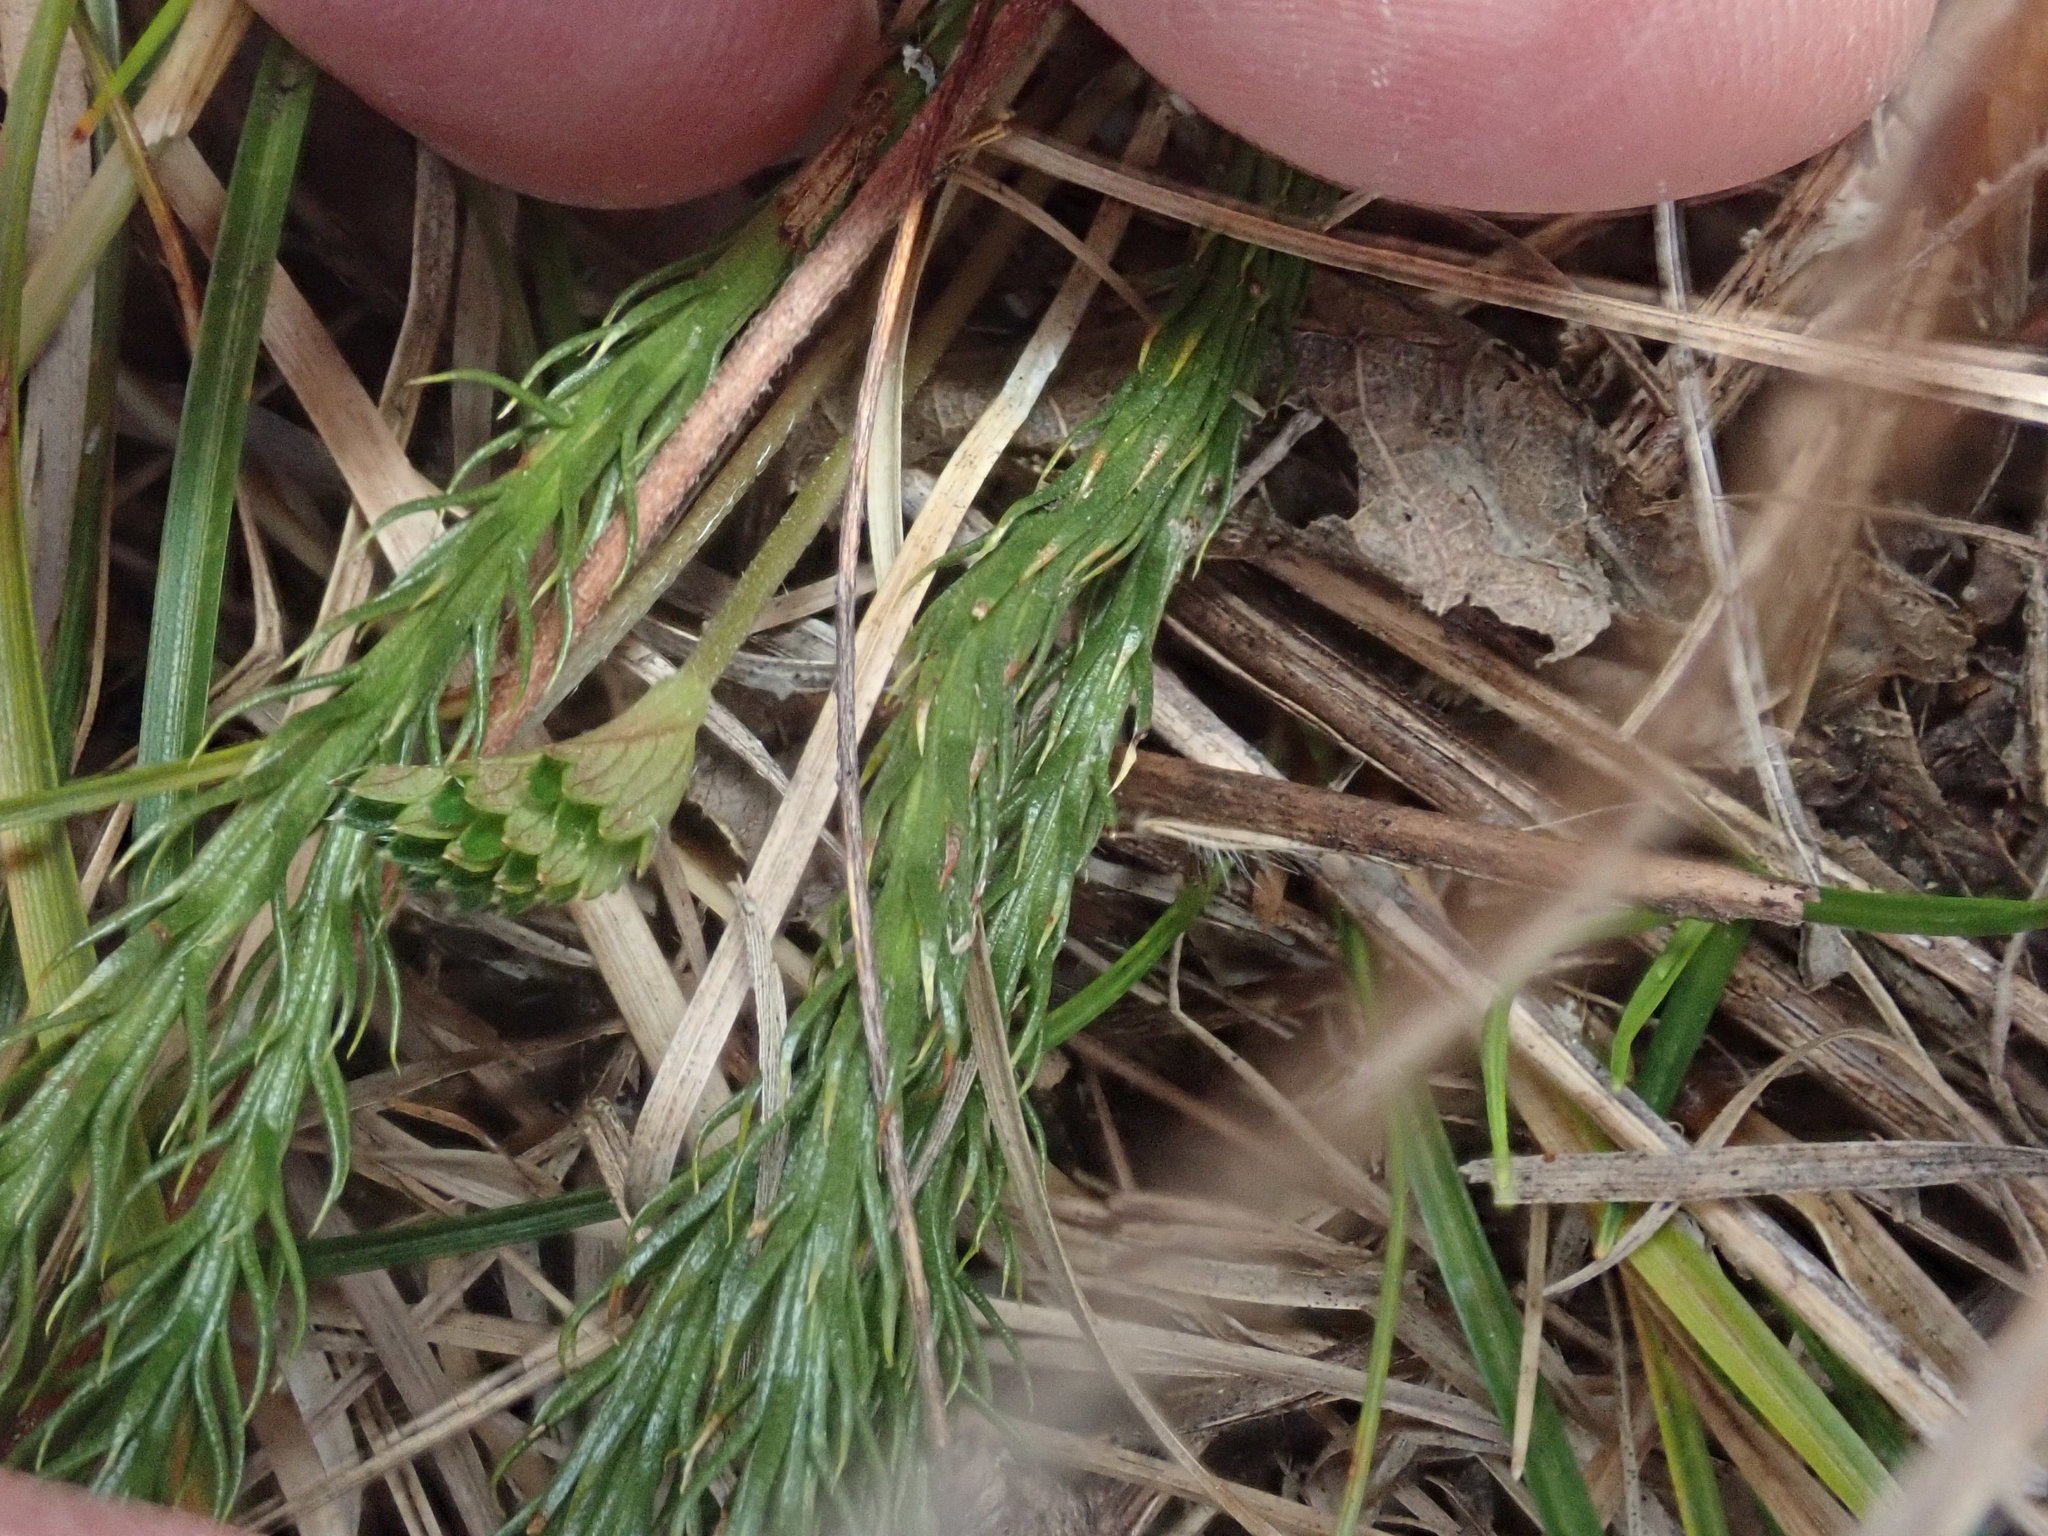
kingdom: Plantae
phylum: Tracheophyta
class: Lycopodiopsida
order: Lycopodiales
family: Lycopodiaceae
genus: Dendrolycopodium
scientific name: Dendrolycopodium hickeyi
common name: Hickey's clubmoss
